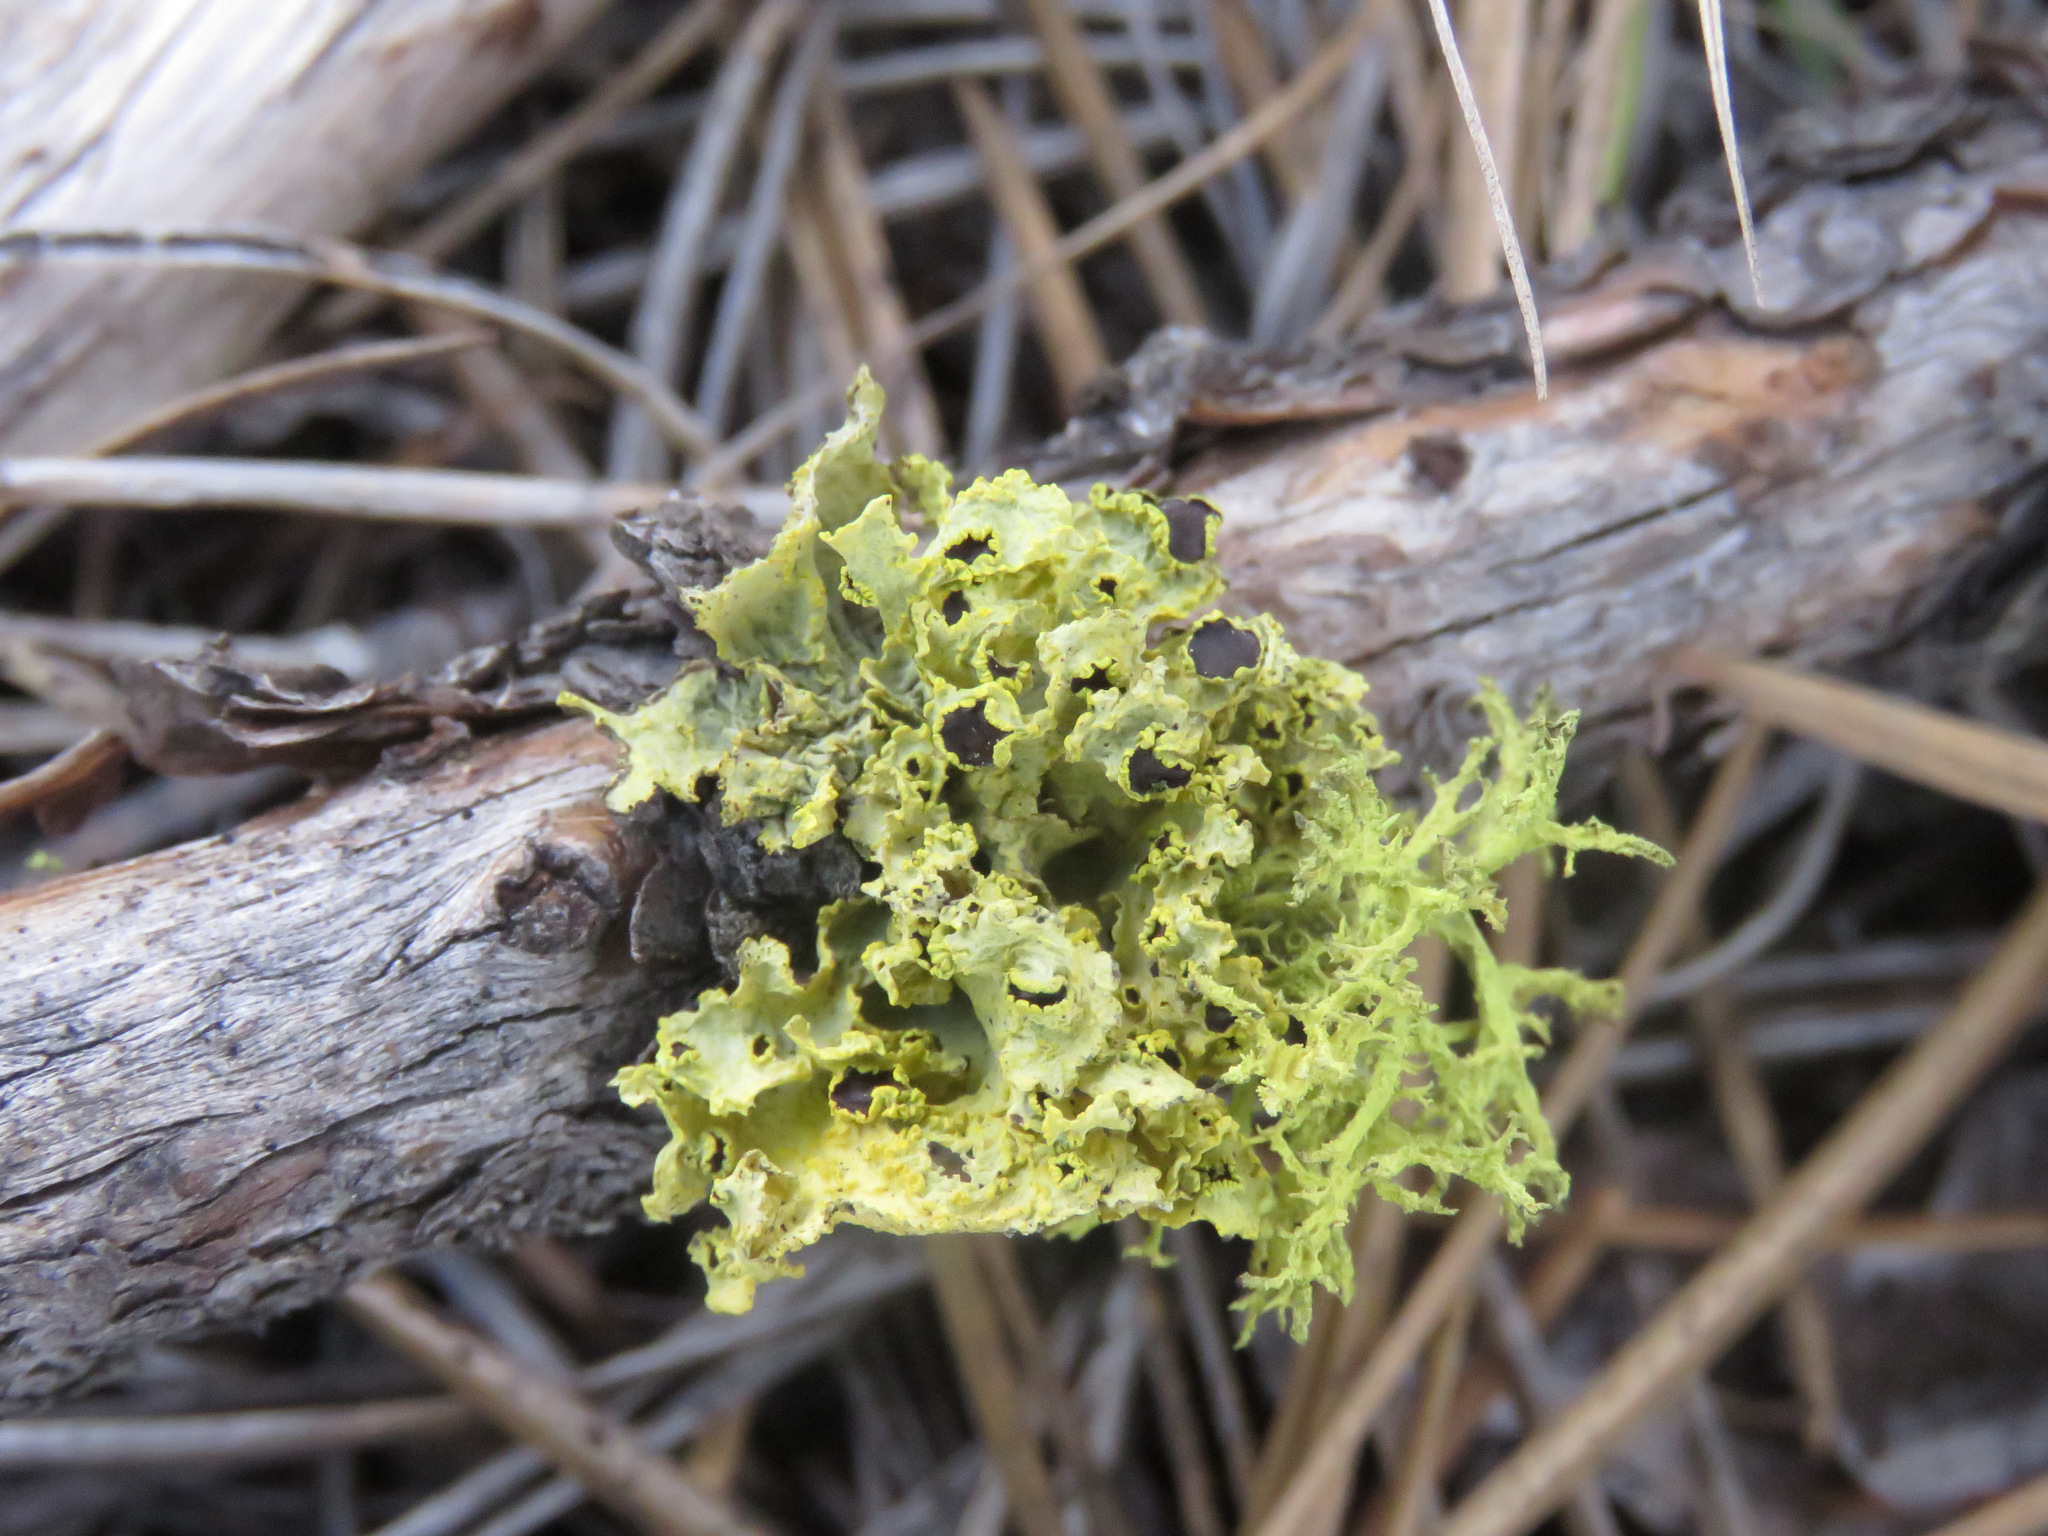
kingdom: Fungi
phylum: Ascomycota
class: Lecanoromycetes
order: Lecanorales
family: Parmeliaceae
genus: Vulpicida
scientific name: Vulpicida canadensis
